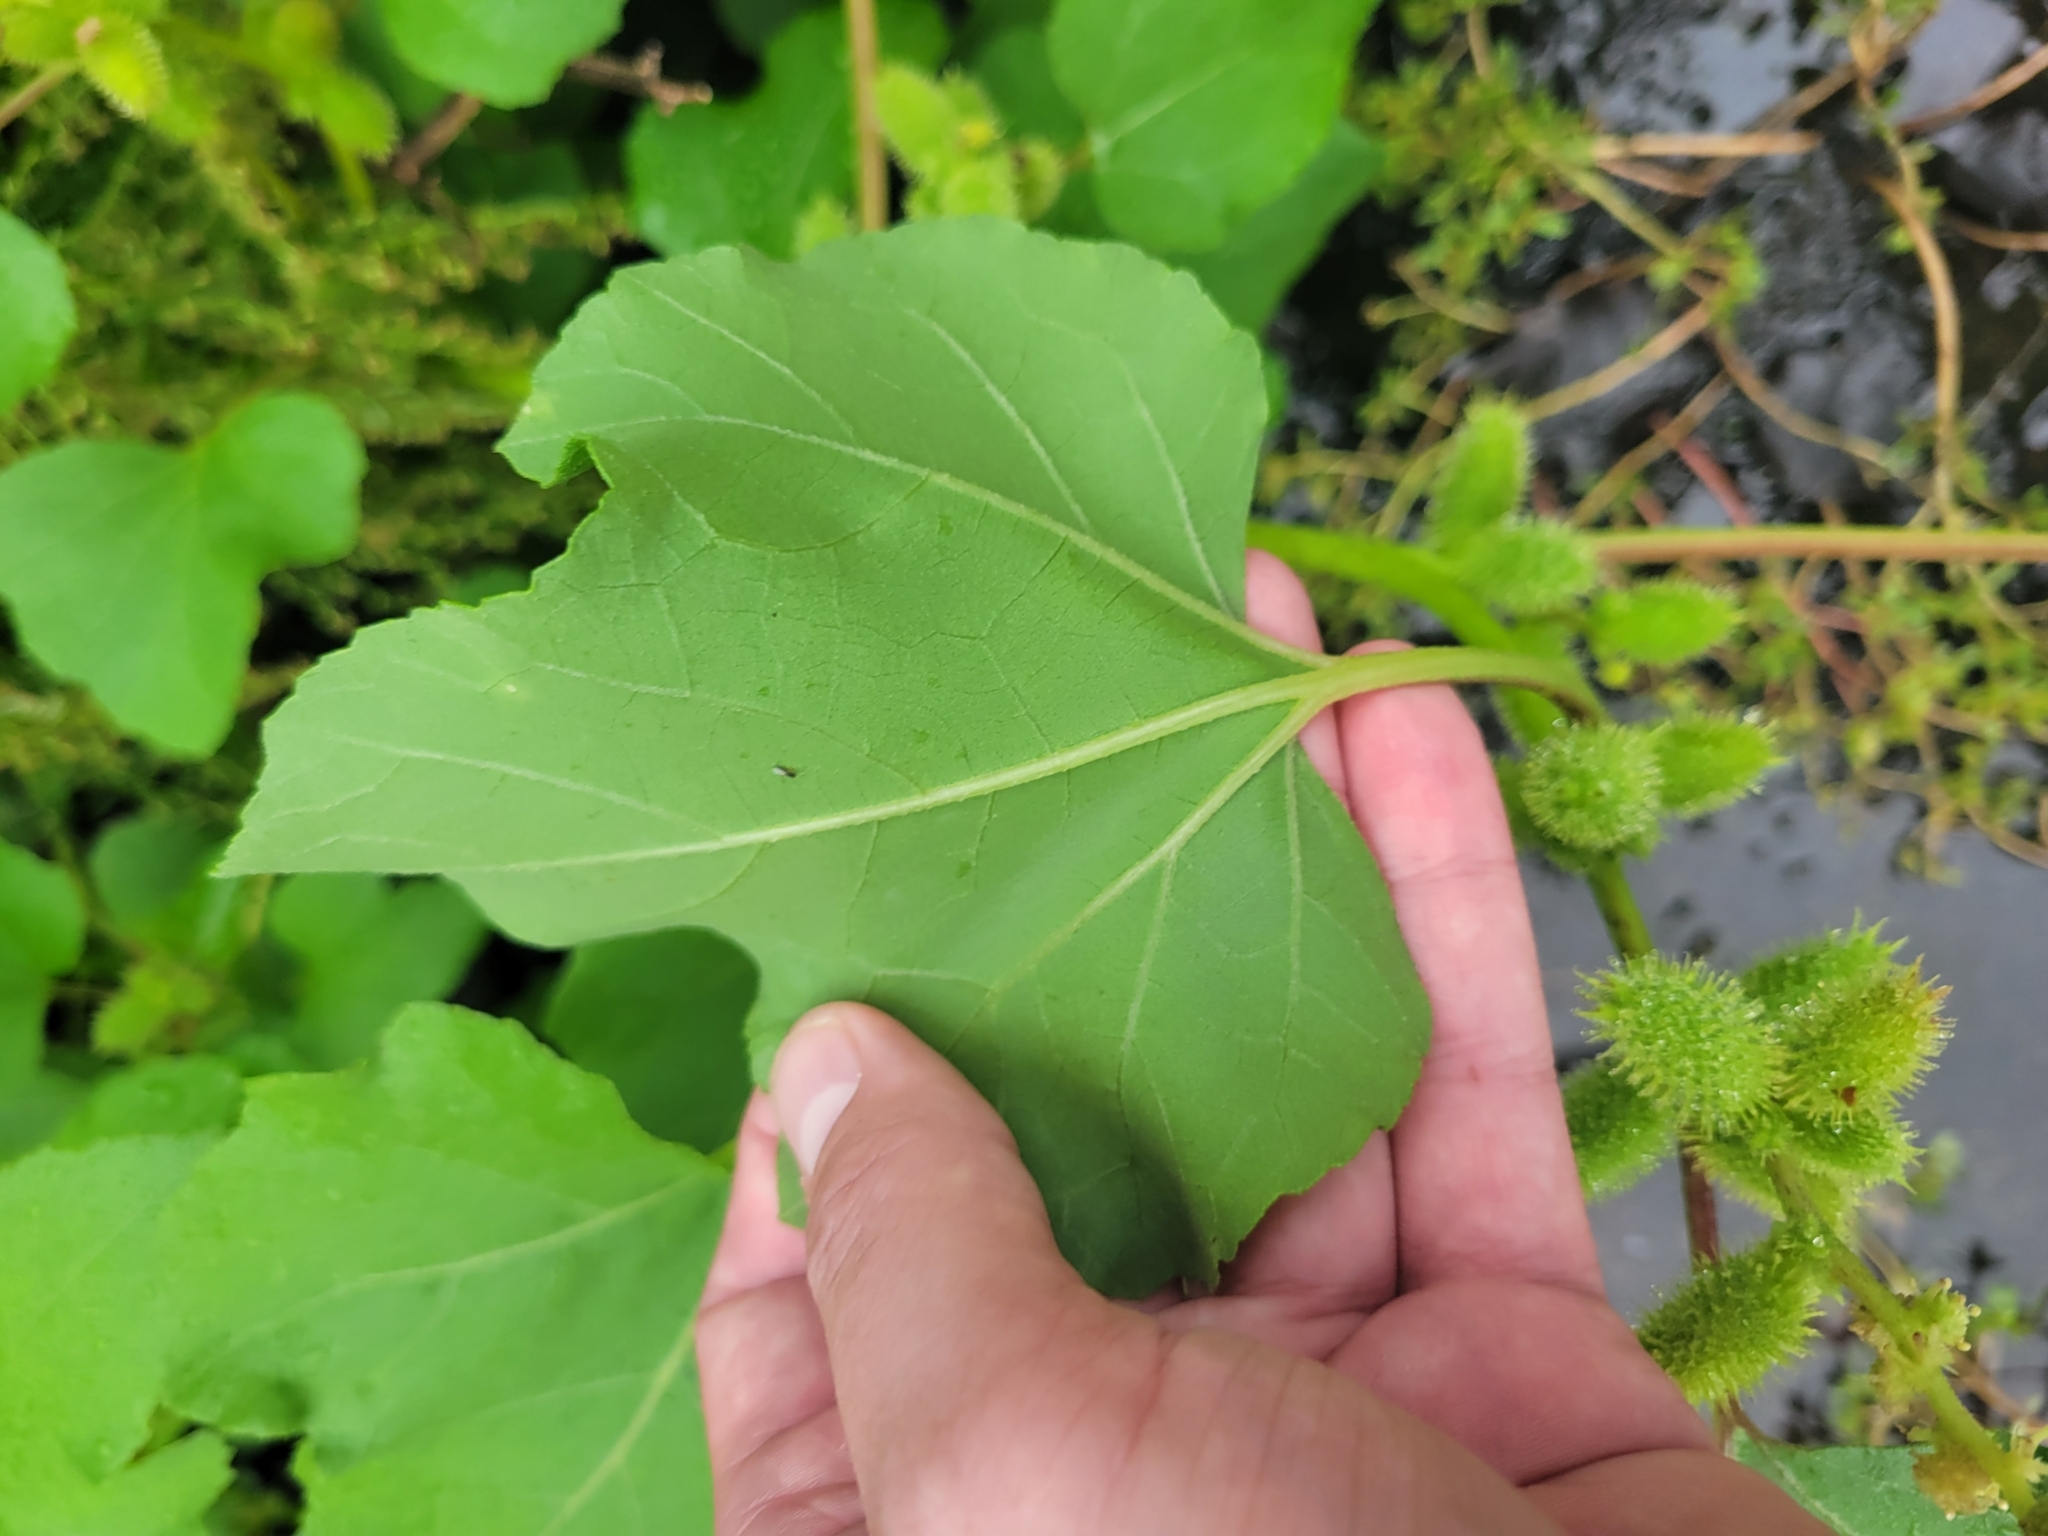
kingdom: Plantae
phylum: Tracheophyta
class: Magnoliopsida
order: Asterales
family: Asteraceae
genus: Xanthium
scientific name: Xanthium strumarium
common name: Rough cocklebur
